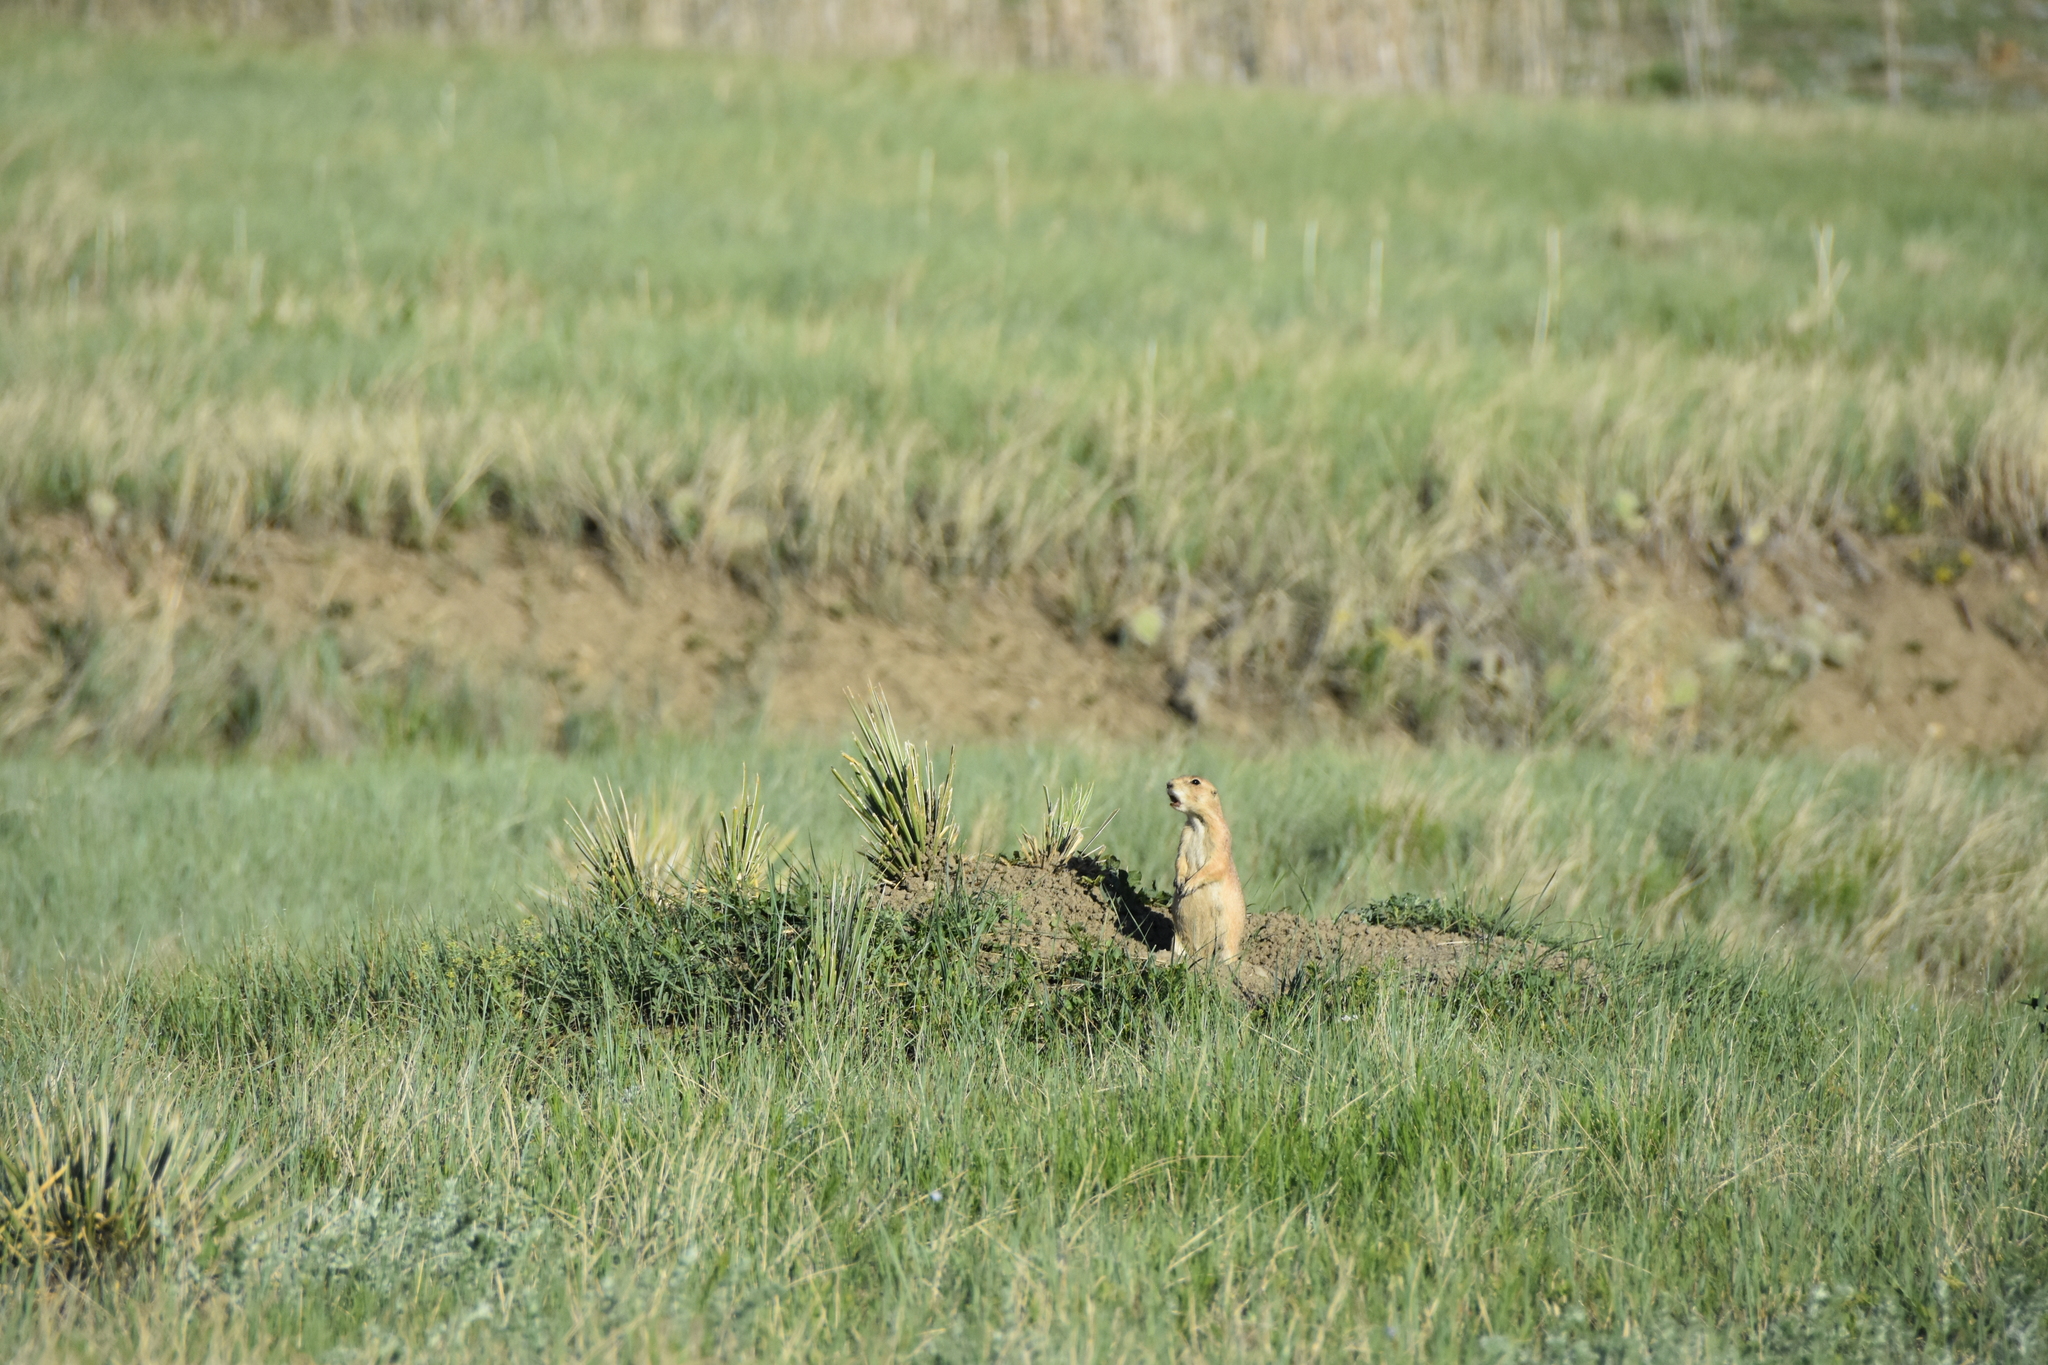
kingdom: Animalia
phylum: Chordata
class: Mammalia
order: Rodentia
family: Sciuridae
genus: Cynomys
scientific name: Cynomys ludovicianus
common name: Black-tailed prairie dog
